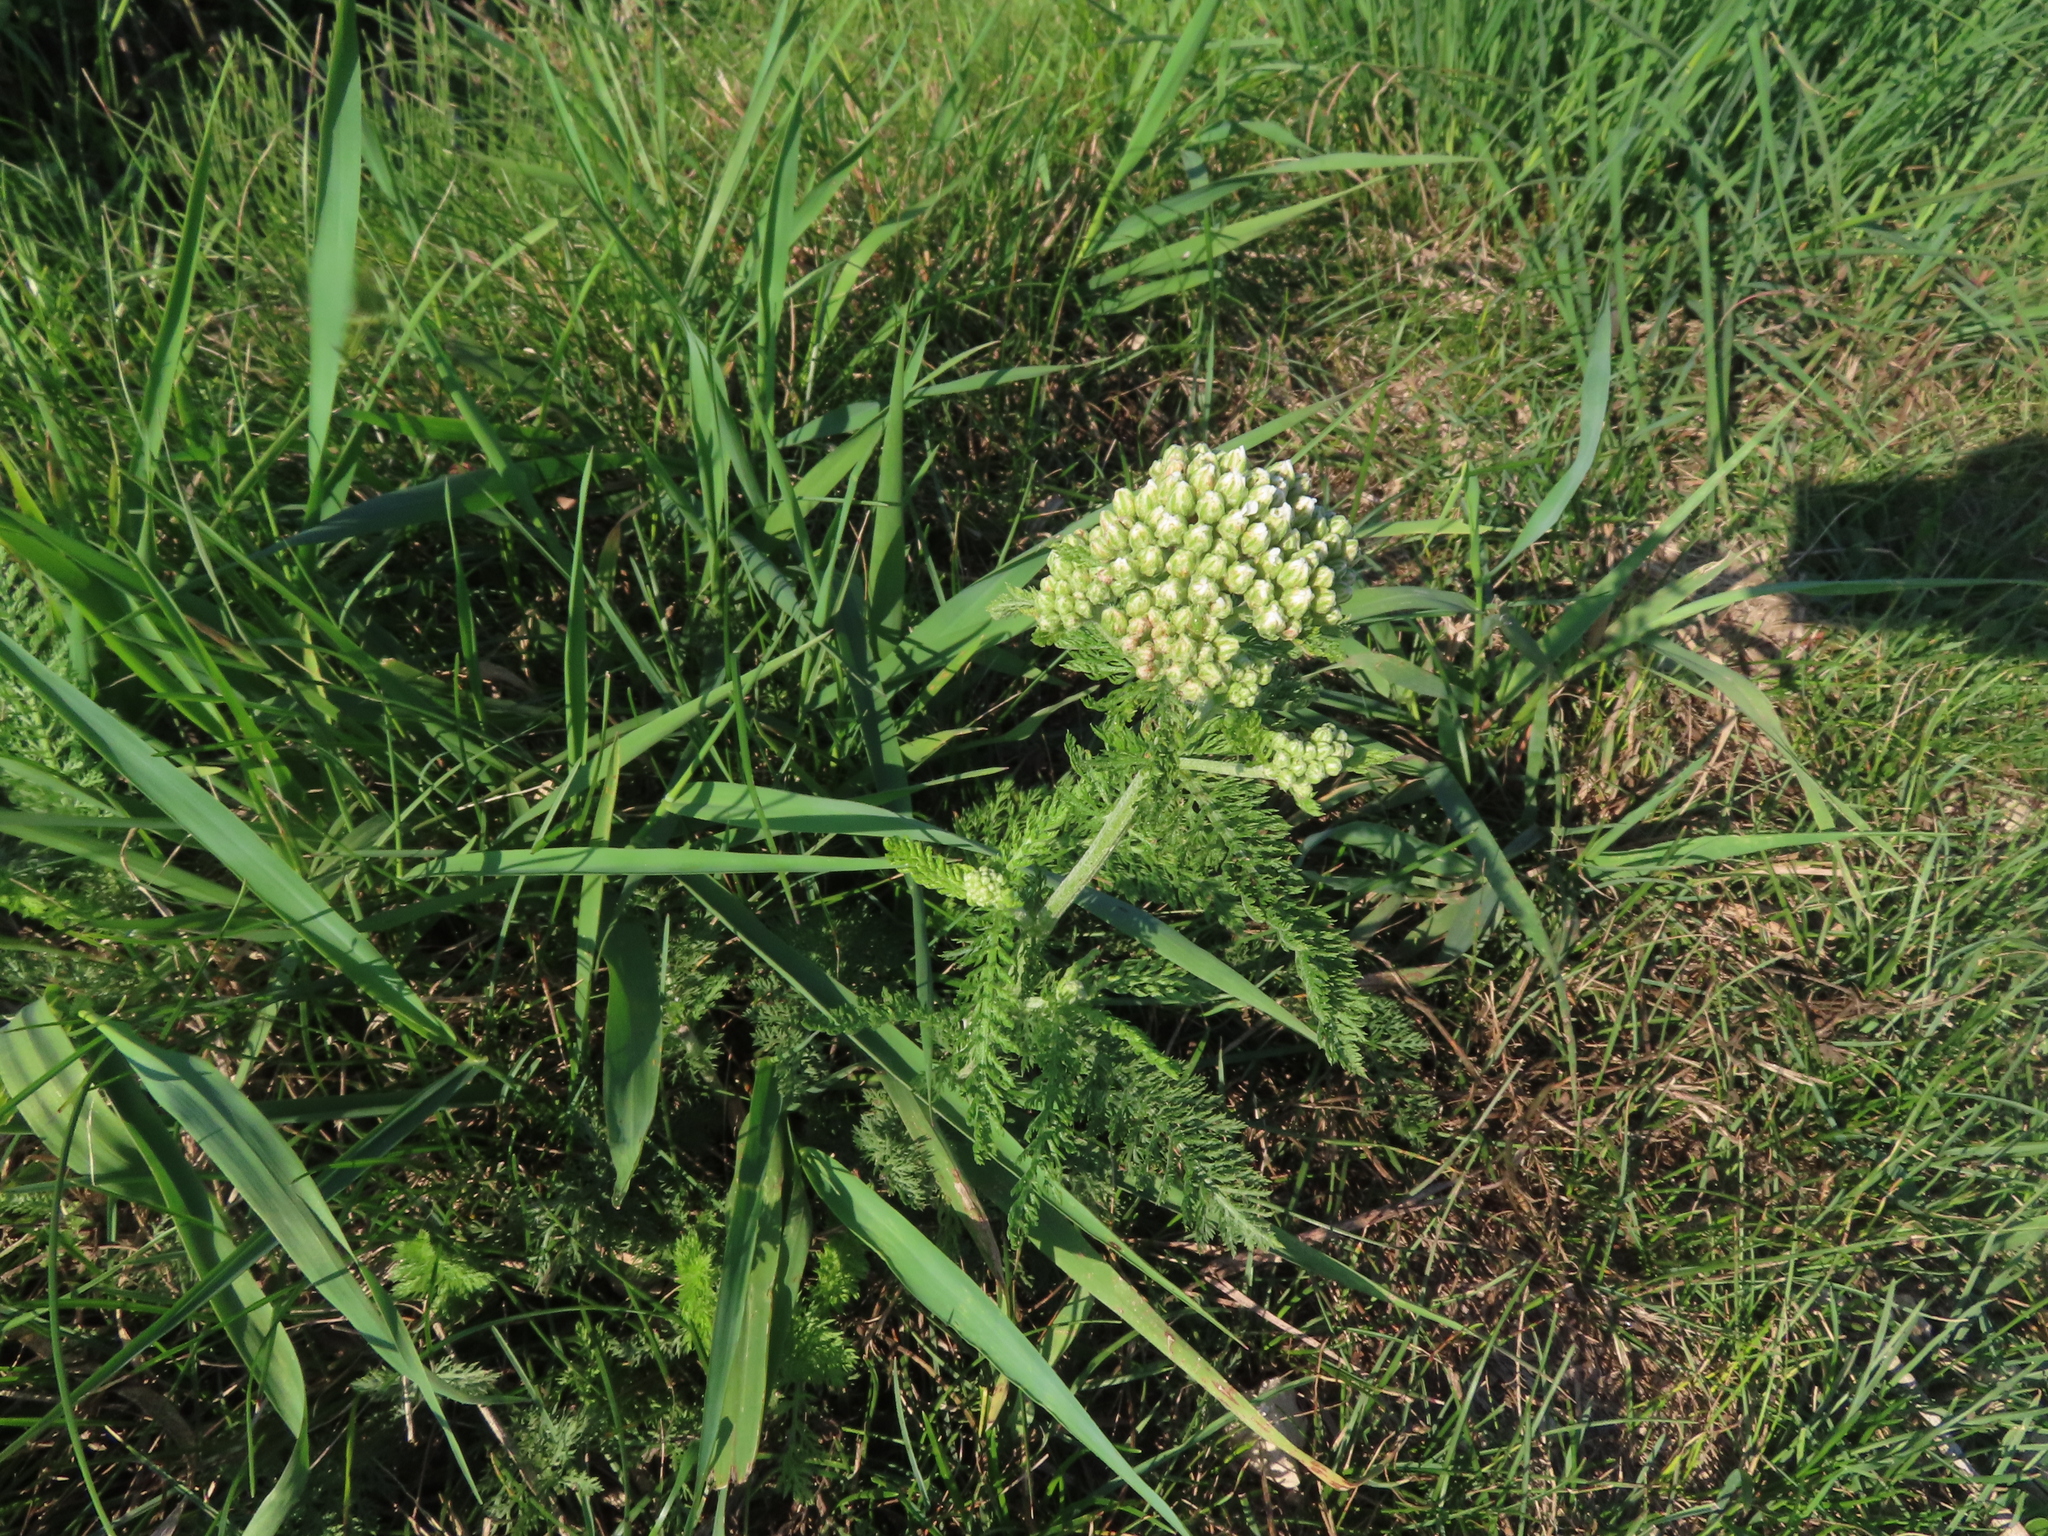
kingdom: Plantae
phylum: Tracheophyta
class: Magnoliopsida
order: Asterales
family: Asteraceae
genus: Achillea
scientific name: Achillea millefolium
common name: Yarrow
